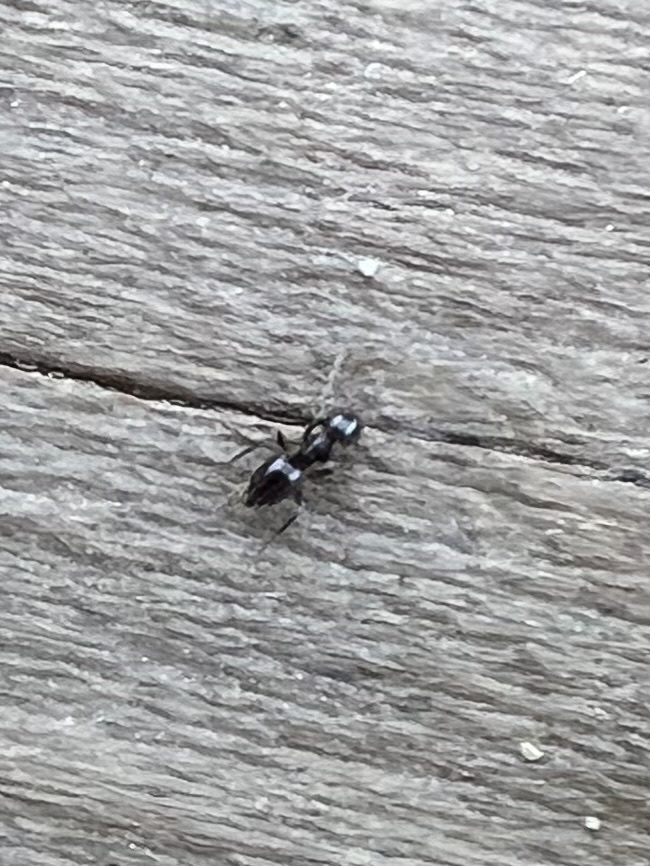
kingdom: Animalia
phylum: Arthropoda
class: Insecta
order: Hymenoptera
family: Formicidae
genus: Brachymyrmex
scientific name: Brachymyrmex patagonicus
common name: Dark rover ant
